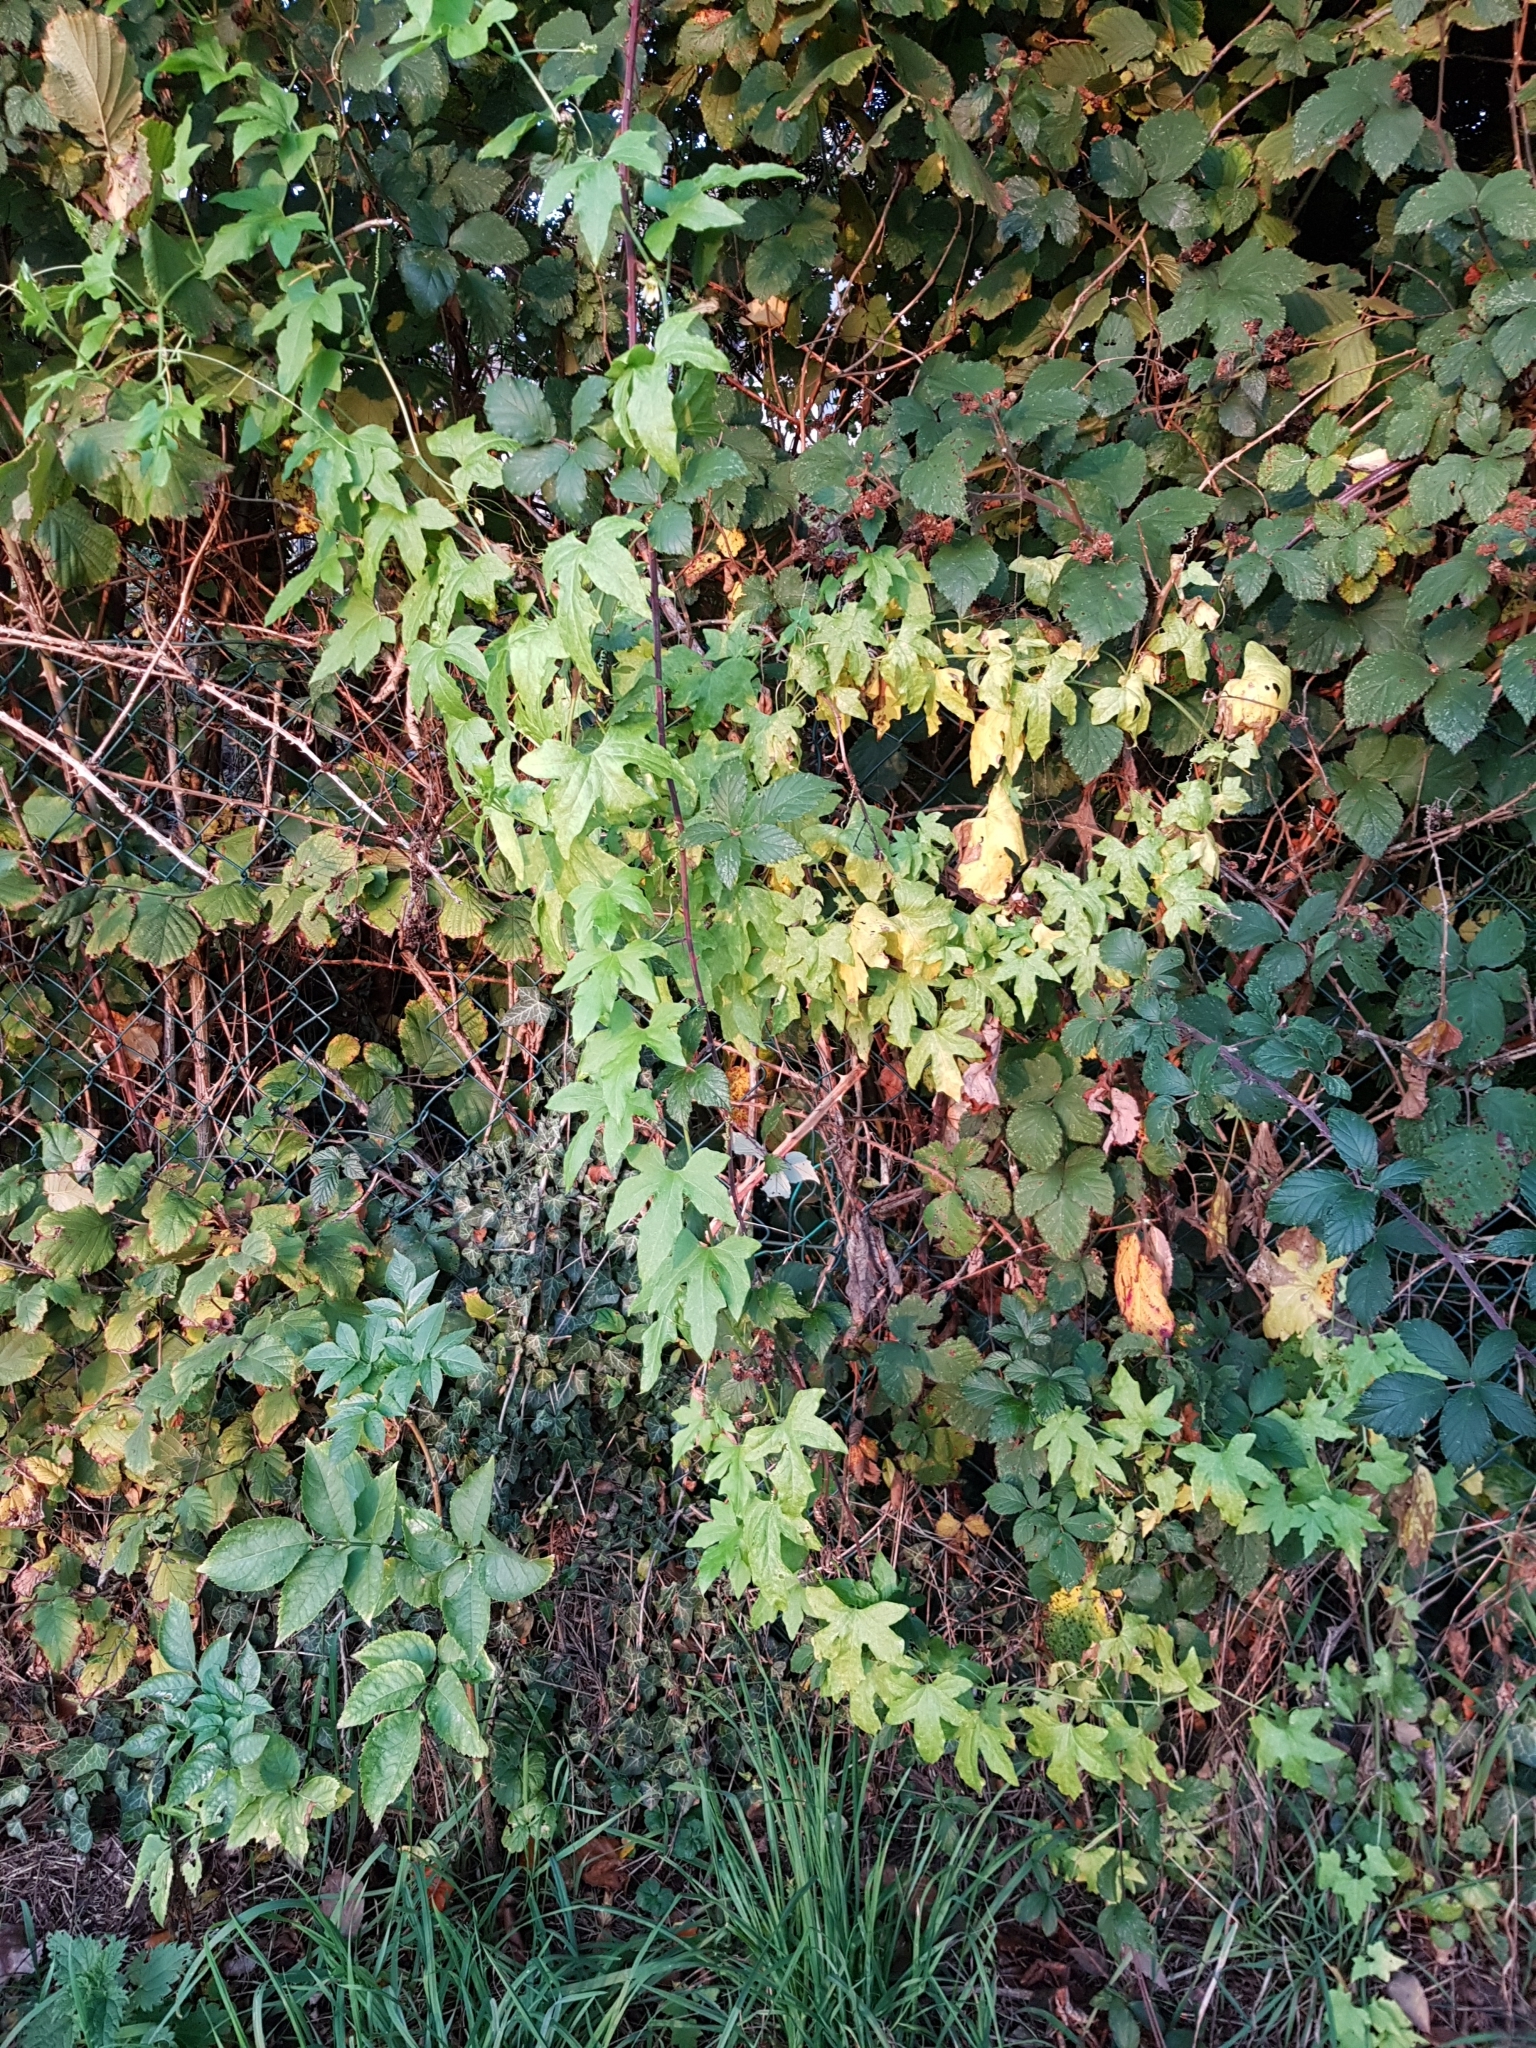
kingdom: Plantae
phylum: Tracheophyta
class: Magnoliopsida
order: Cucurbitales
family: Cucurbitaceae
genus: Bryonia
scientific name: Bryonia cretica
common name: Cretan bryony
